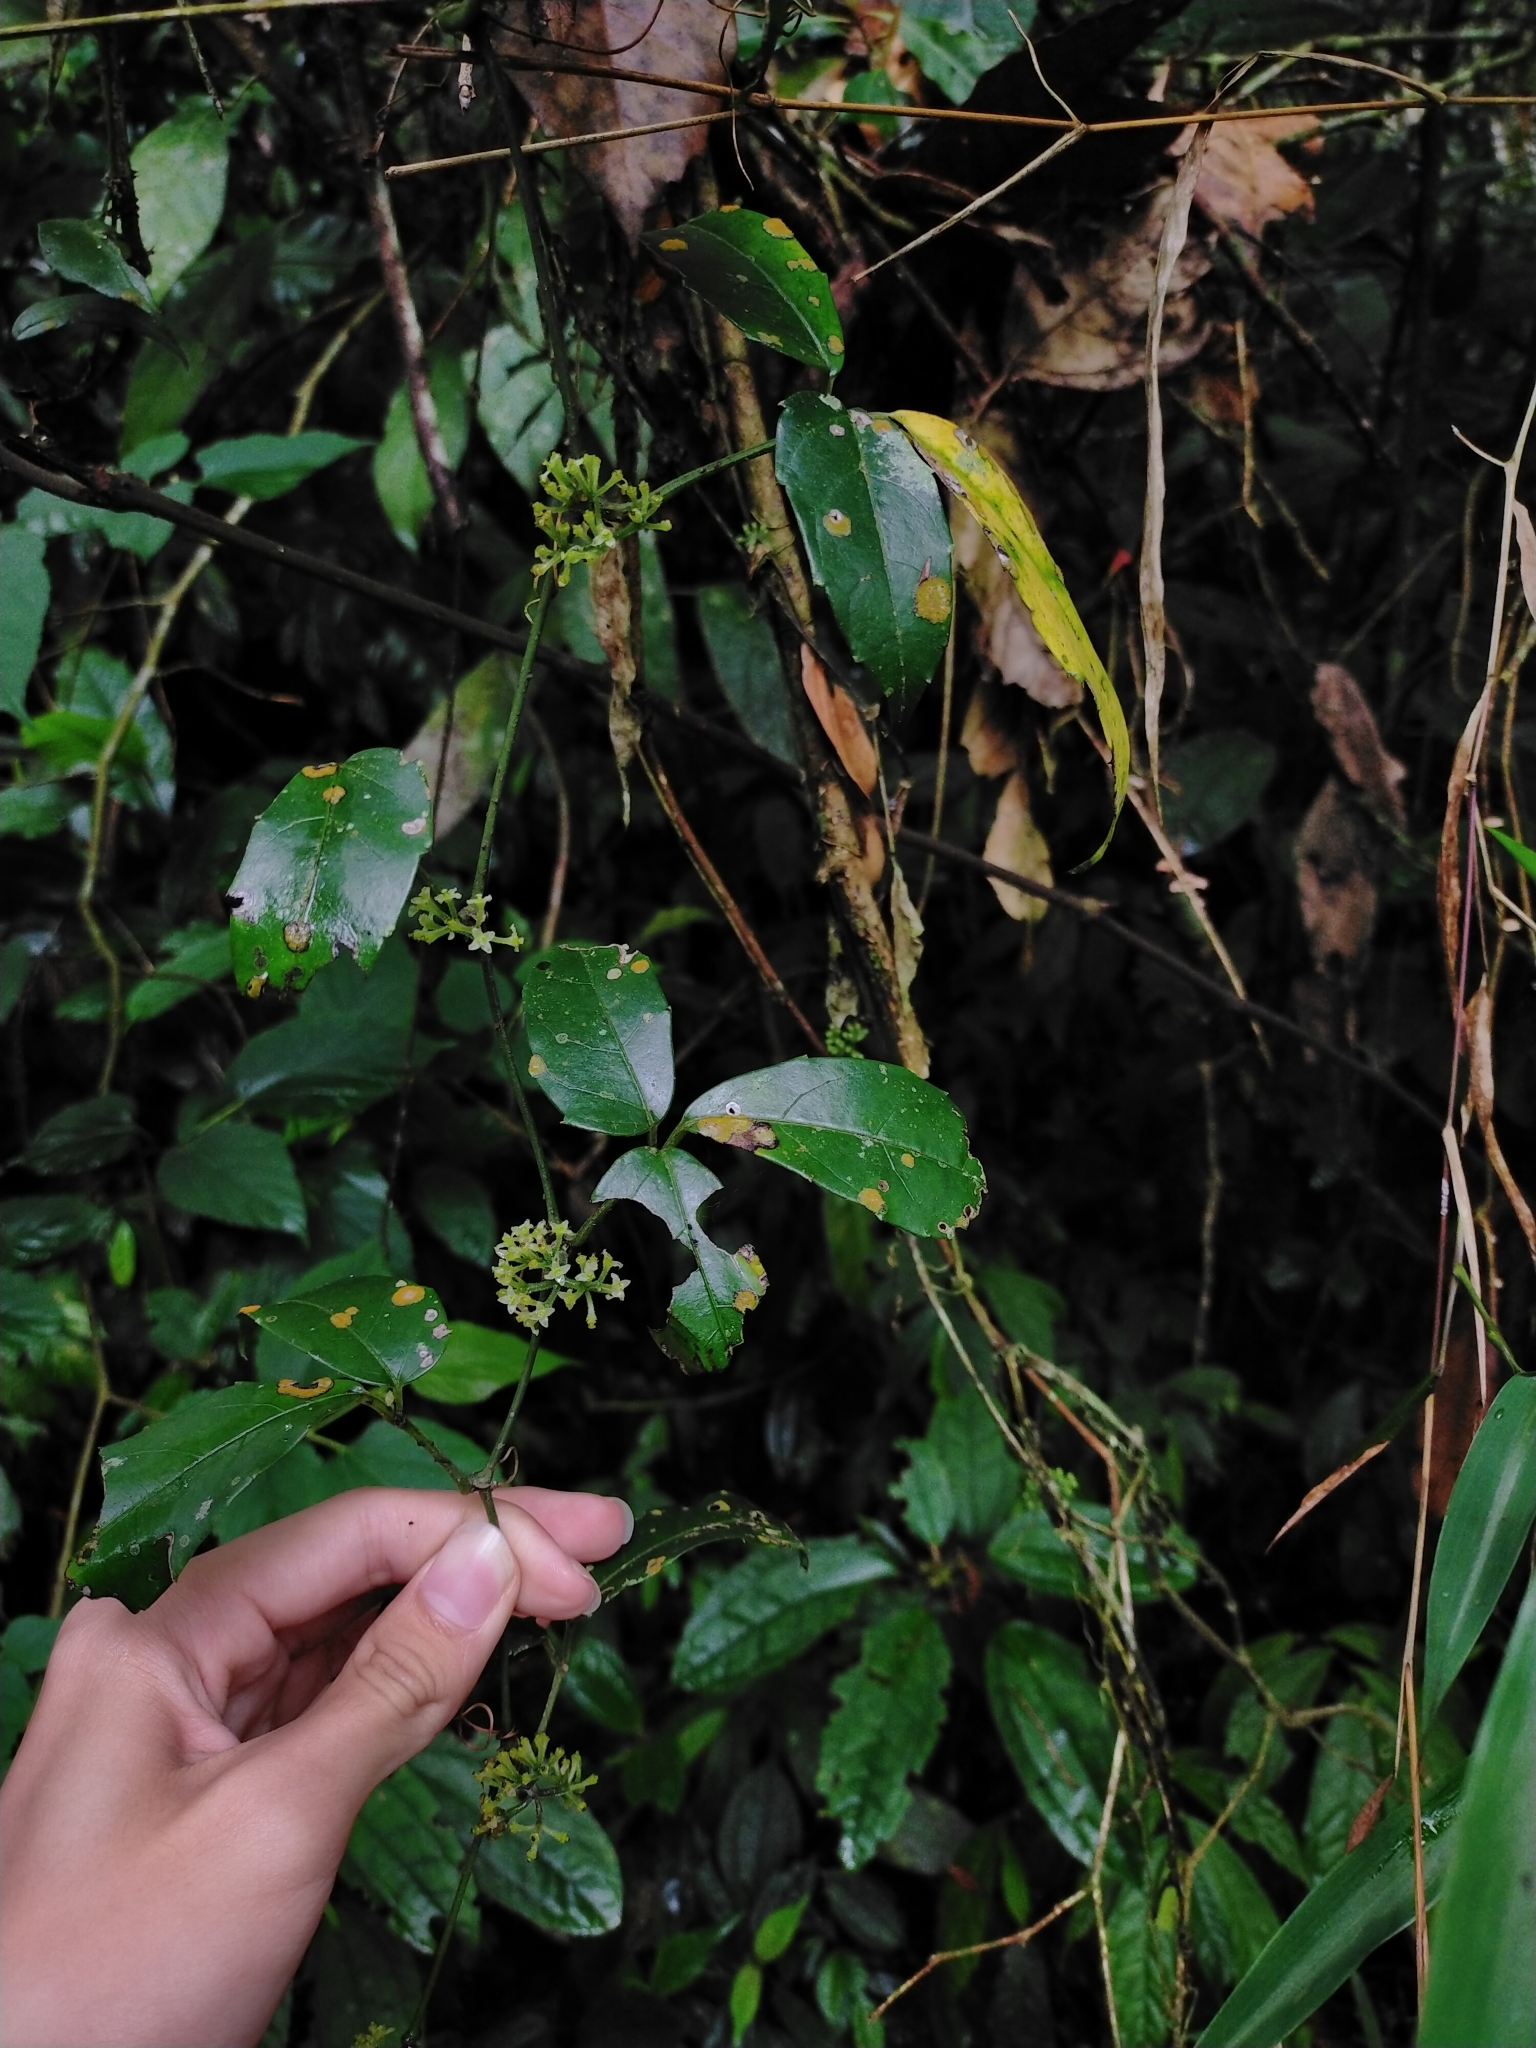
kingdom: Plantae
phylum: Tracheophyta
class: Magnoliopsida
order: Vitales
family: Vitaceae
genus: Tetrastigma
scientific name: Tetrastigma hemsleyanum
